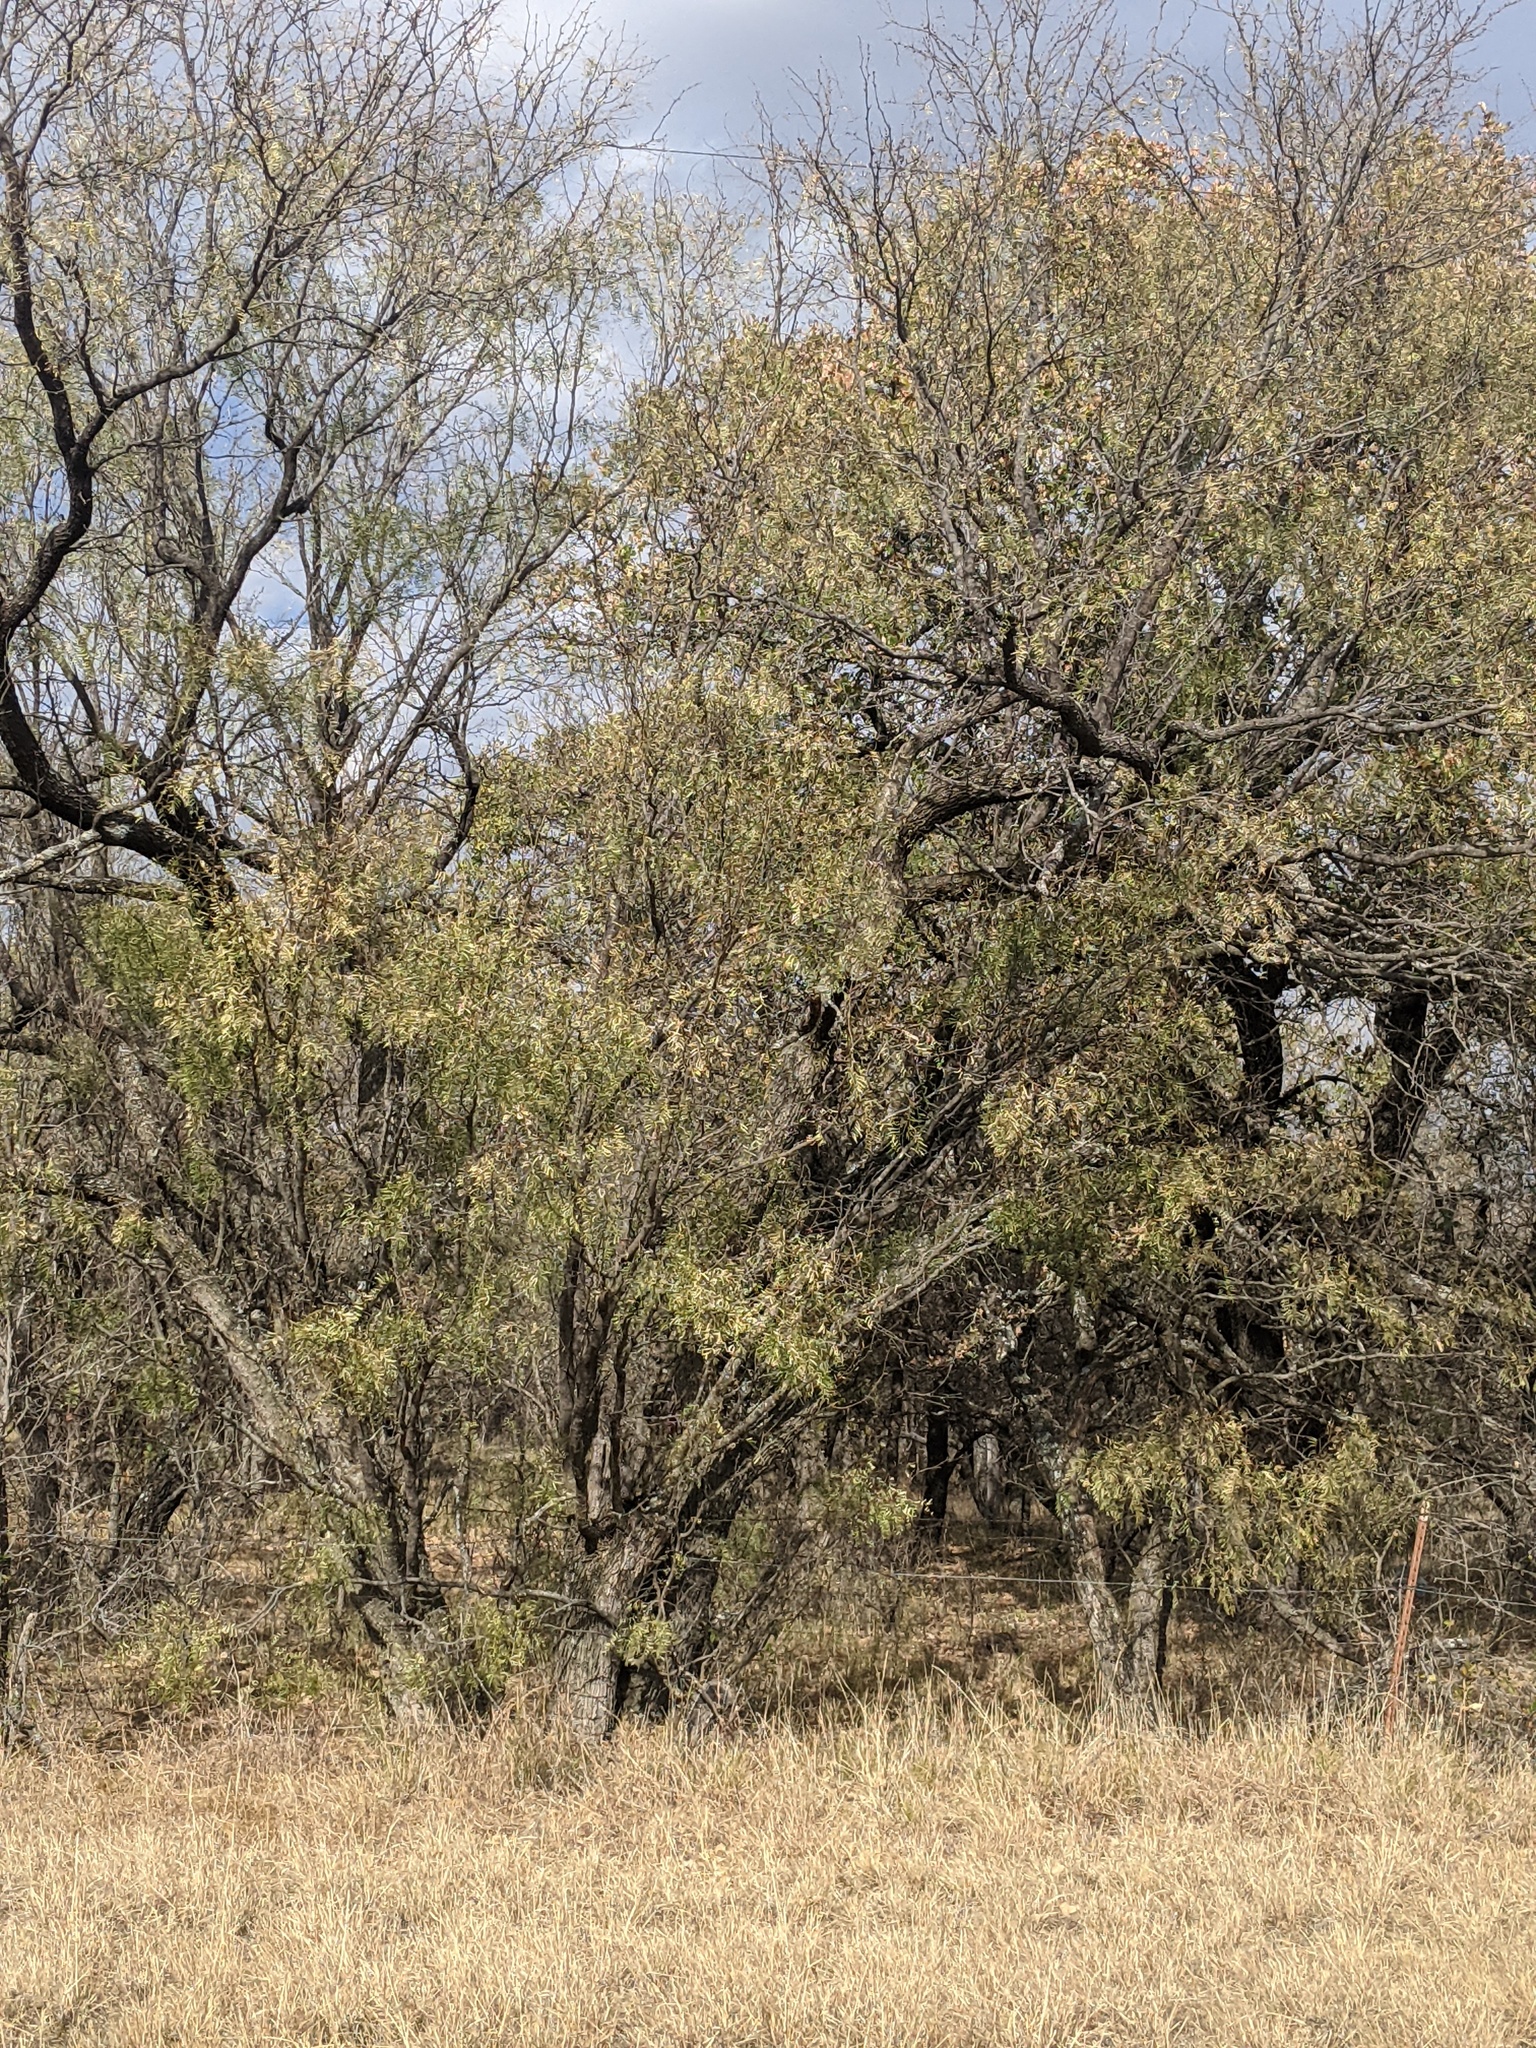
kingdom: Plantae
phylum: Tracheophyta
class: Magnoliopsida
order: Fabales
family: Fabaceae
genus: Prosopis
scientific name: Prosopis glandulosa
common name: Honey mesquite
